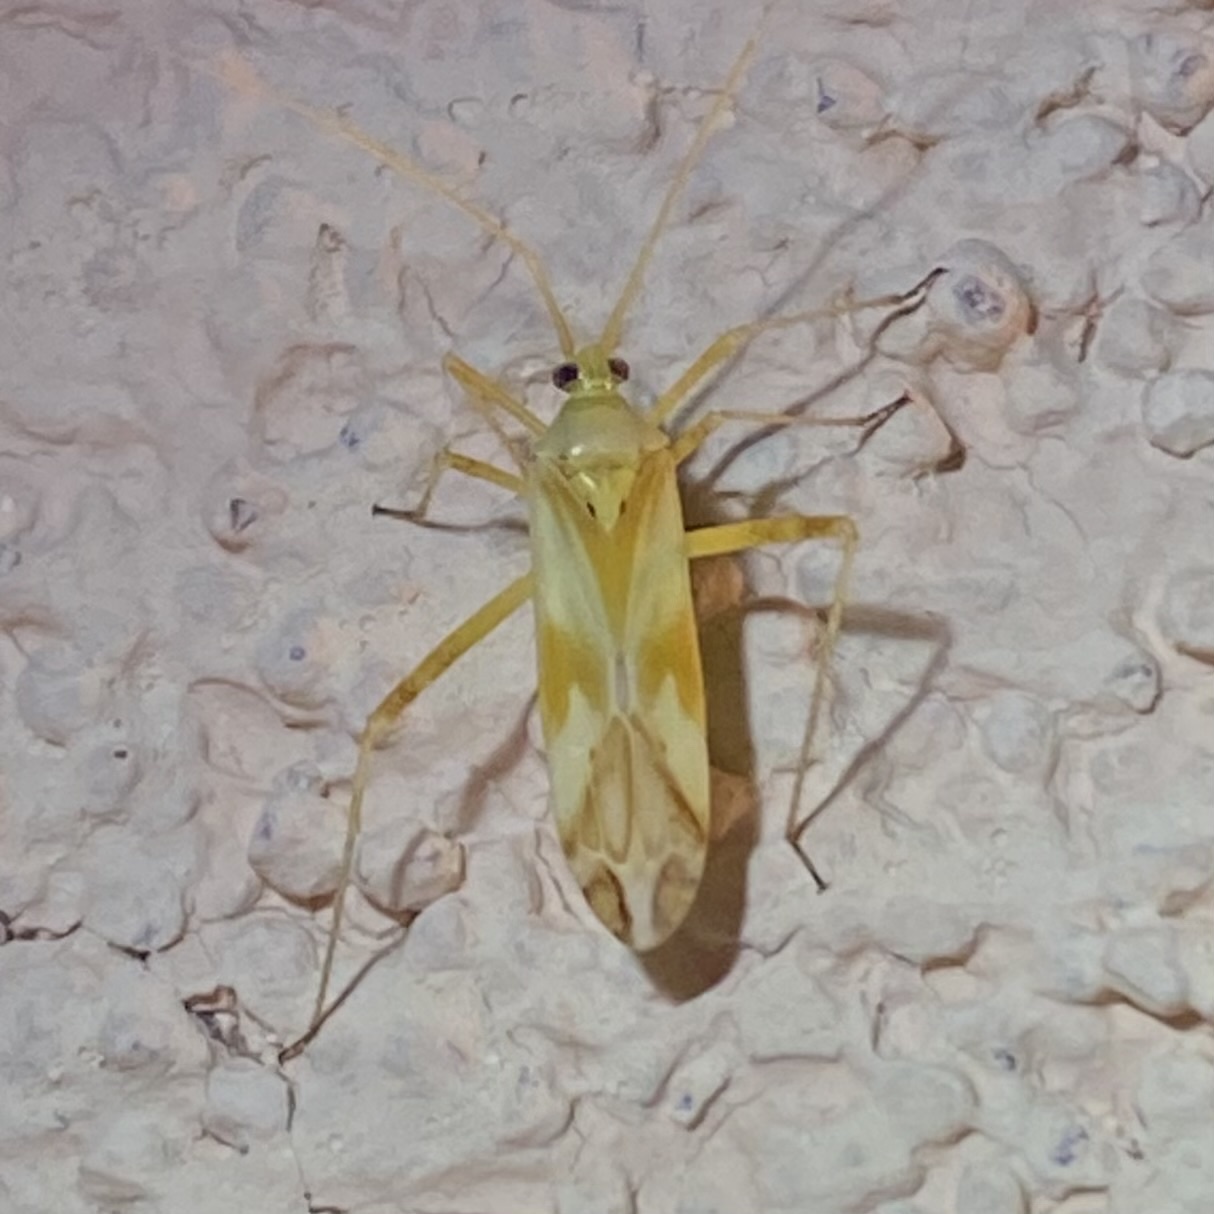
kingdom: Animalia
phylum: Arthropoda
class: Insecta
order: Hemiptera
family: Miridae
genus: Phytocoris
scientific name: Phytocoris laevis
